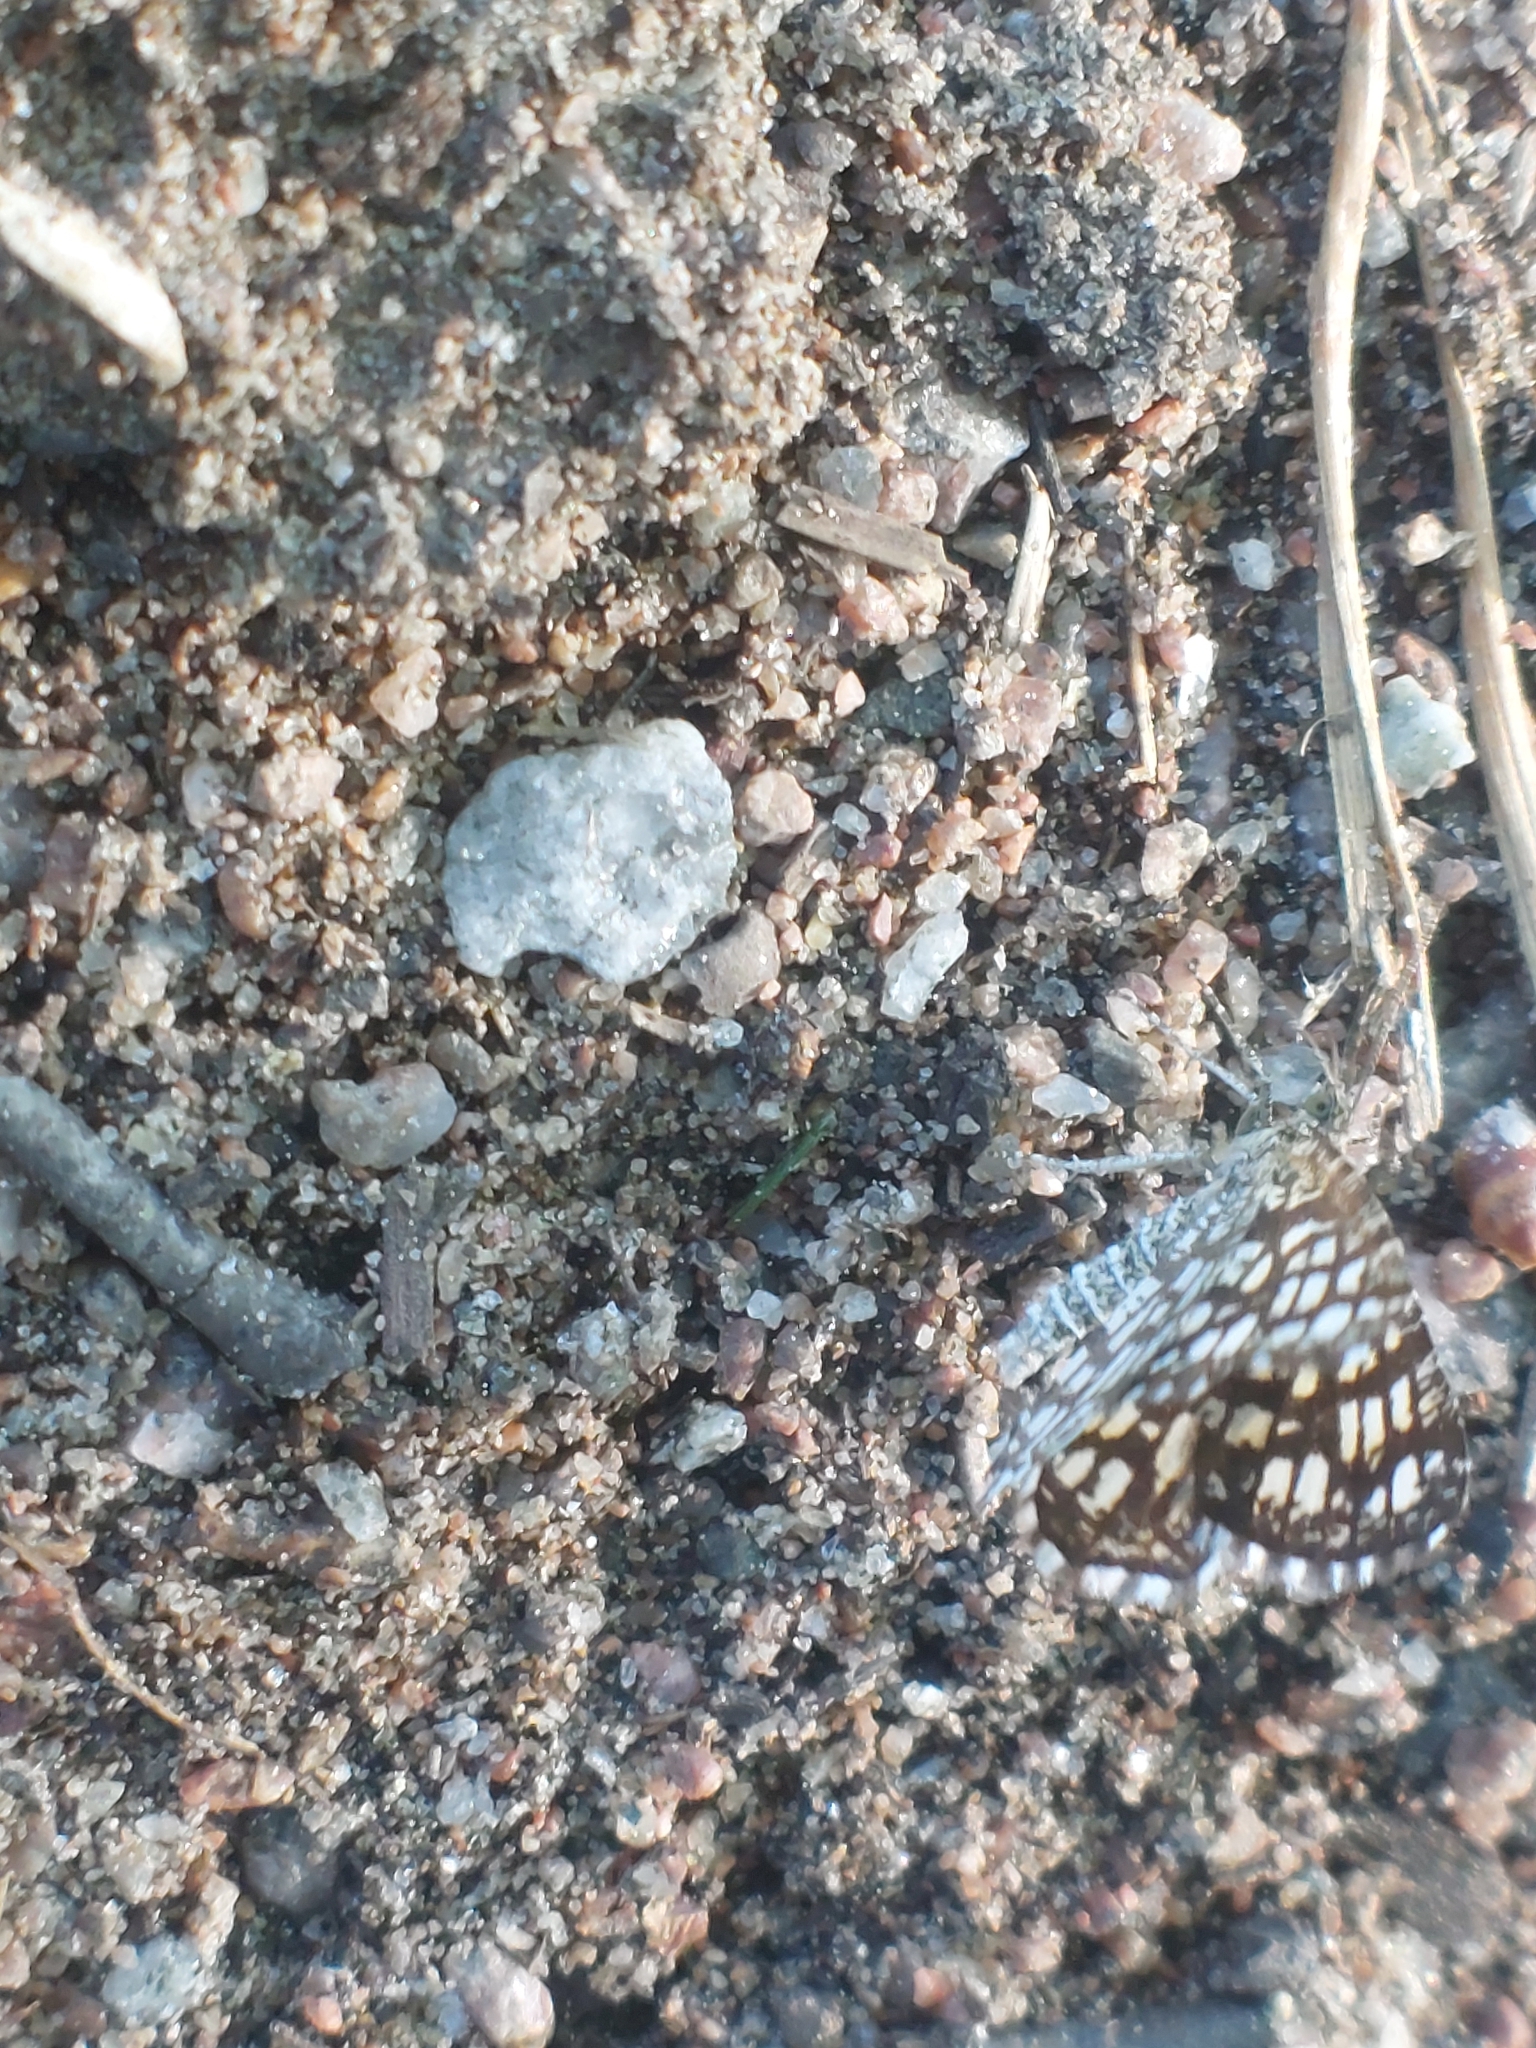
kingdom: Animalia
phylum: Arthropoda
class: Insecta
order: Lepidoptera
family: Geometridae
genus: Chiasmia
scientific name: Chiasmia clathrata
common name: Latticed heath
